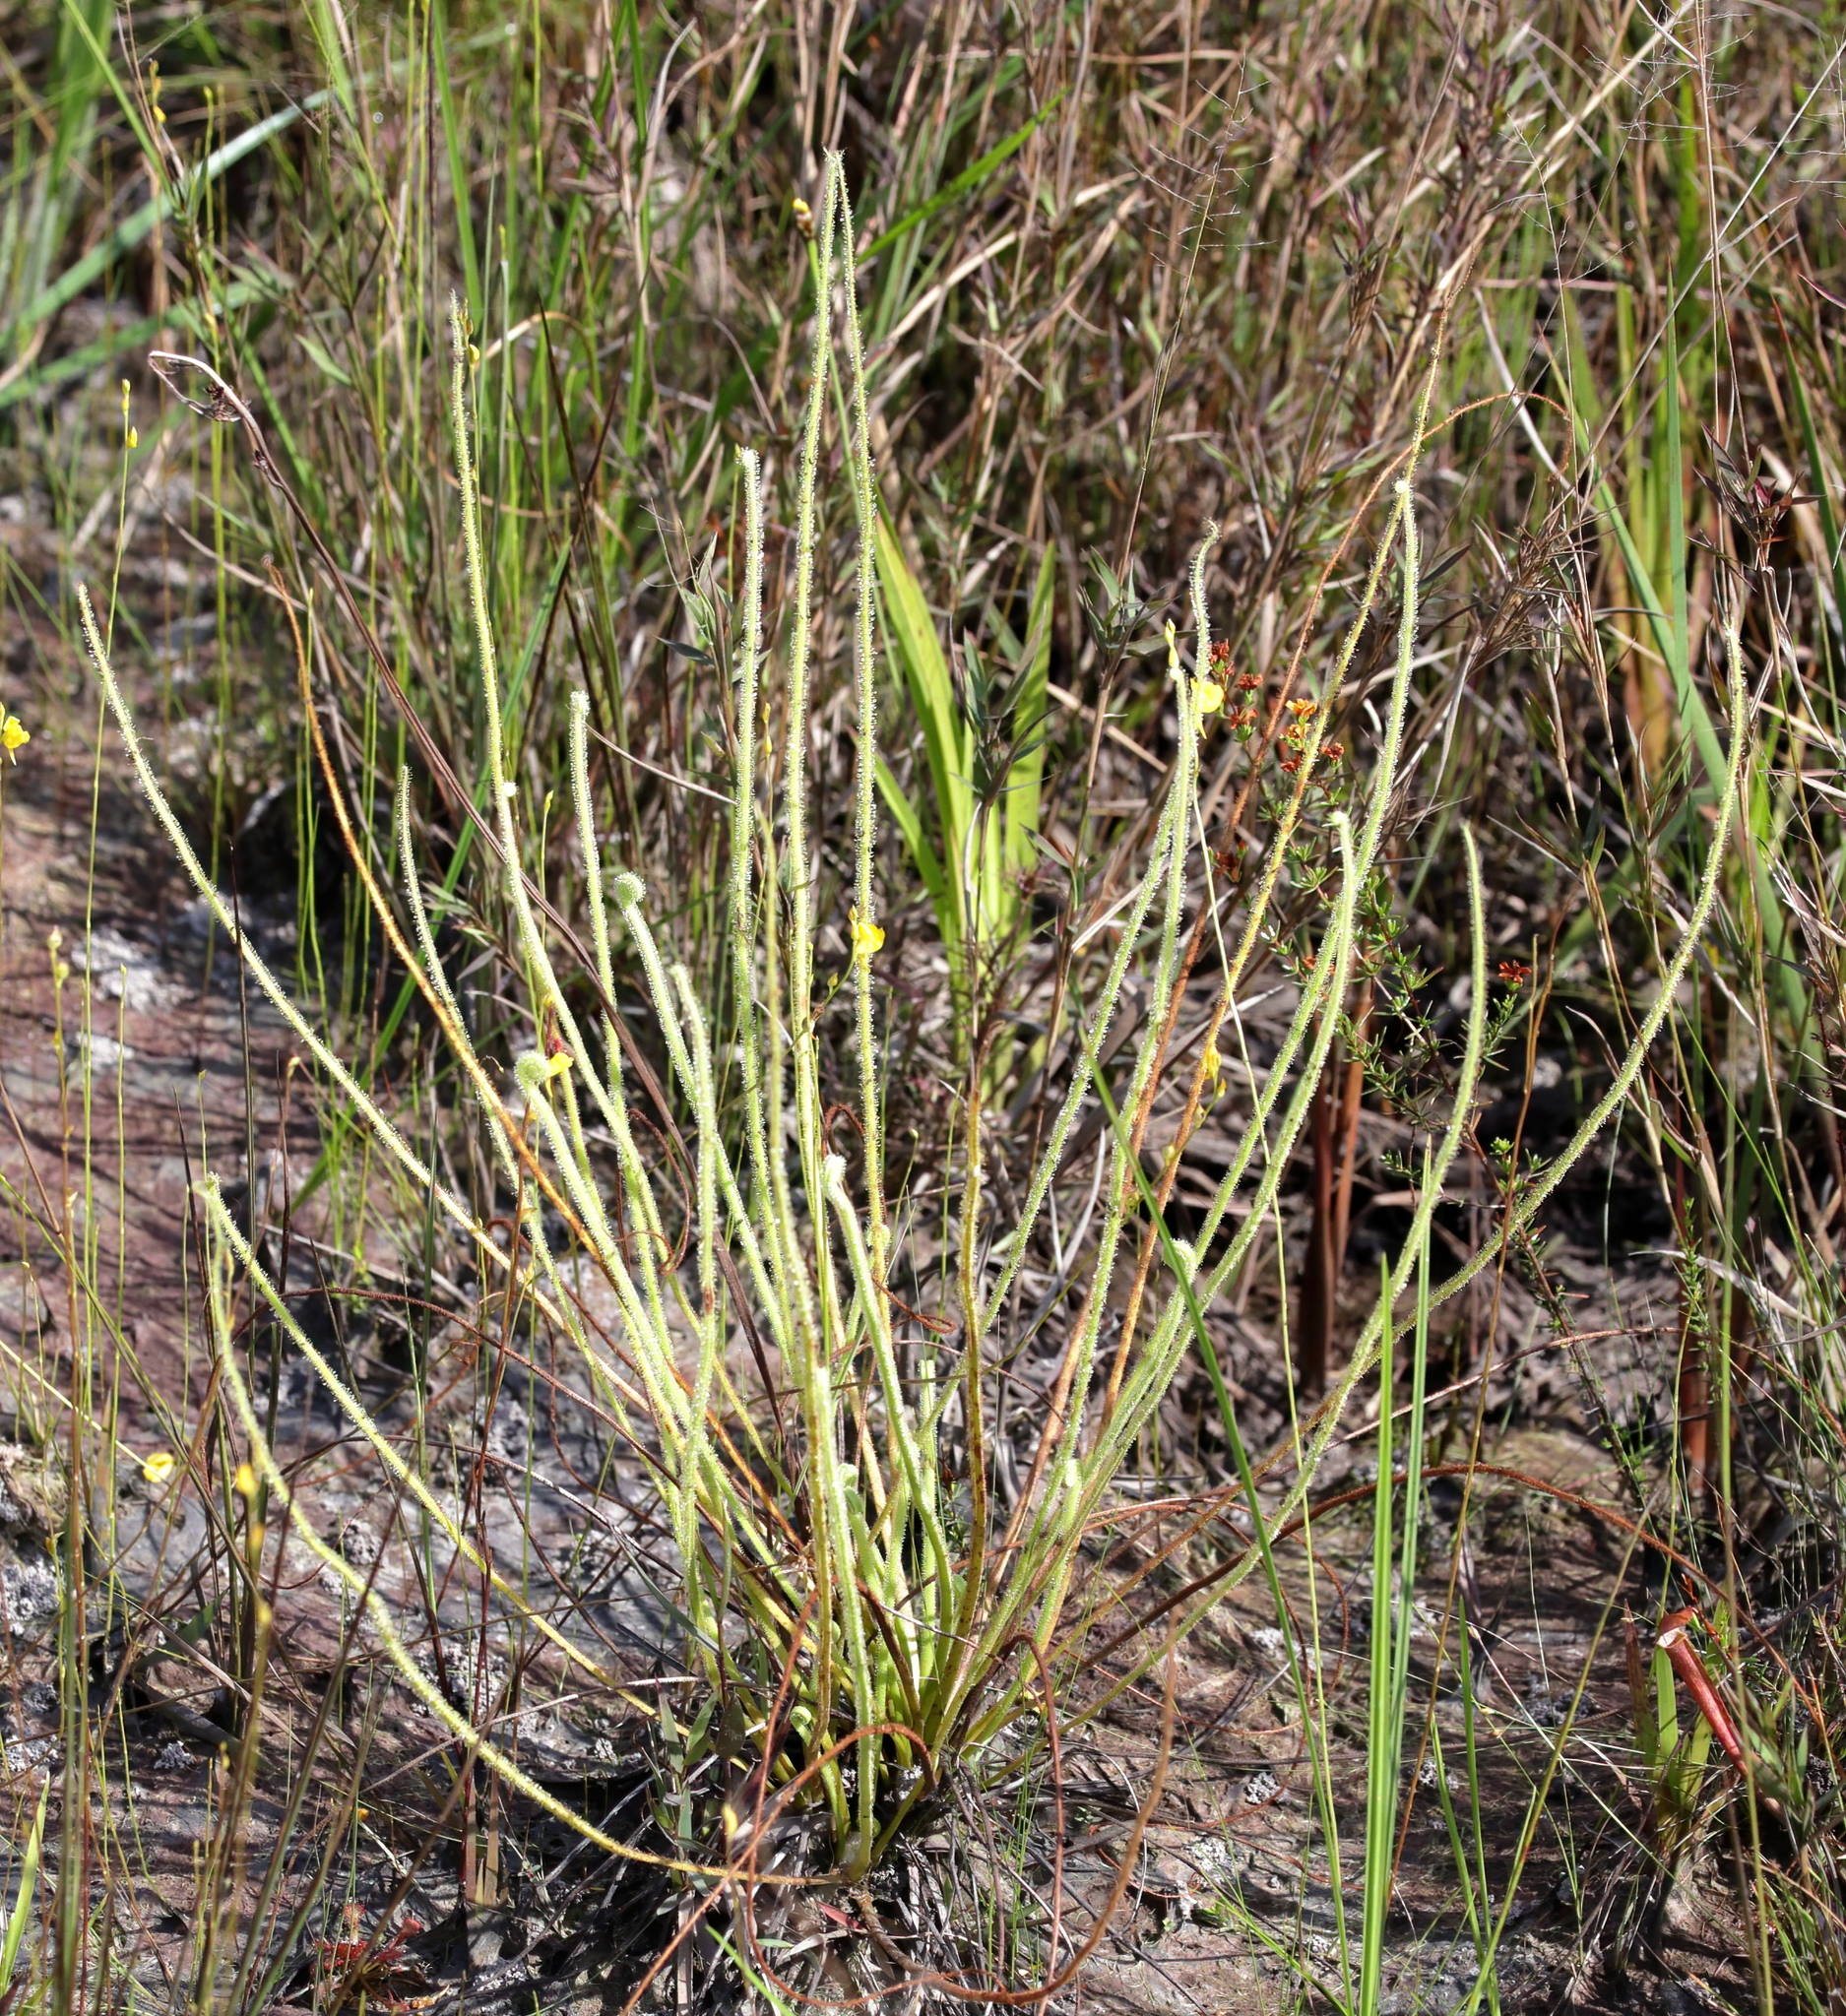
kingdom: Plantae
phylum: Tracheophyta
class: Magnoliopsida
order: Caryophyllales
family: Droseraceae
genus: Drosera
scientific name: Drosera filiformis
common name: Dew-thread
